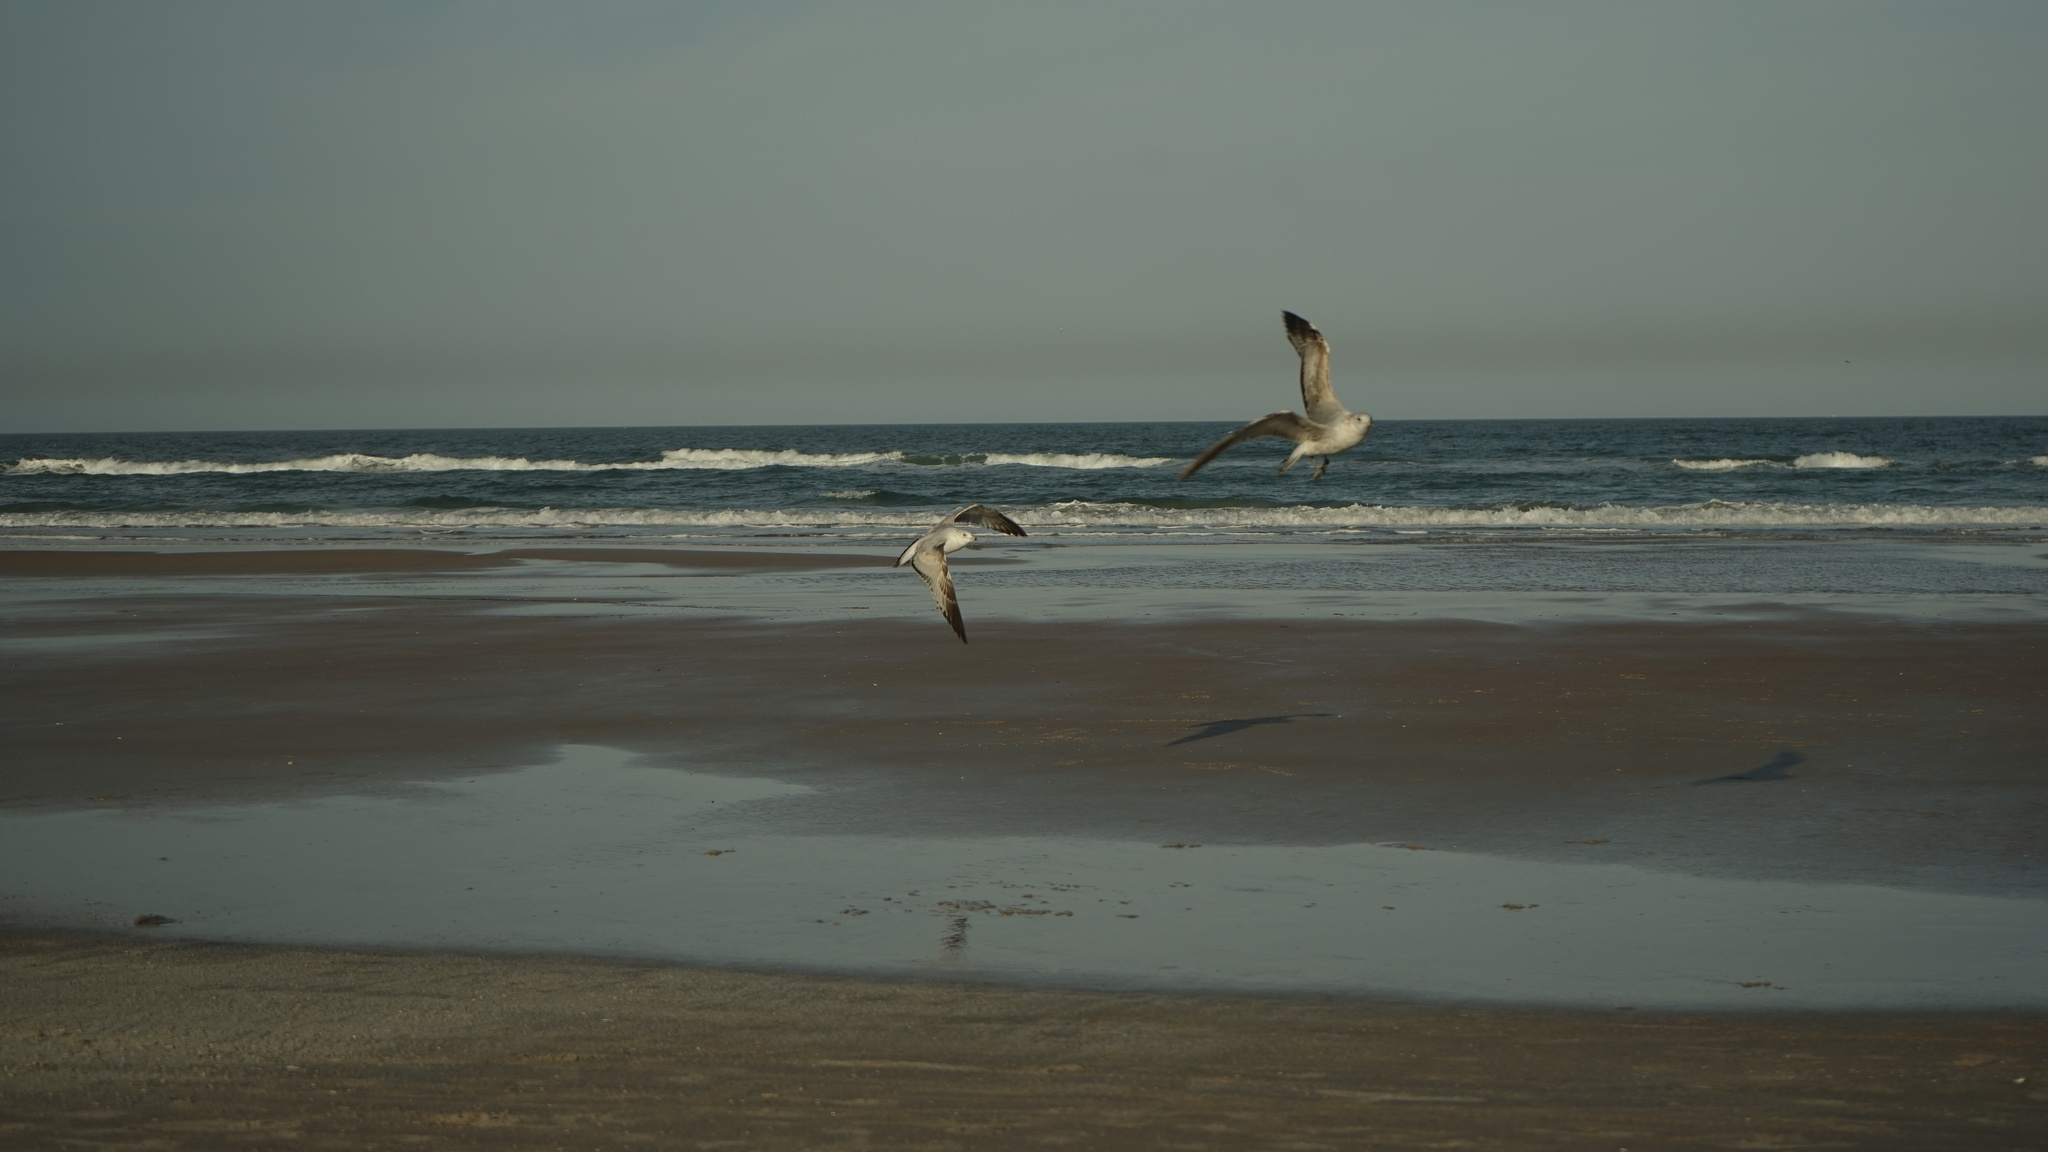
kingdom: Animalia
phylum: Chordata
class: Aves
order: Charadriiformes
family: Laridae
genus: Larus
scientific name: Larus delawarensis
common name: Ring-billed gull
